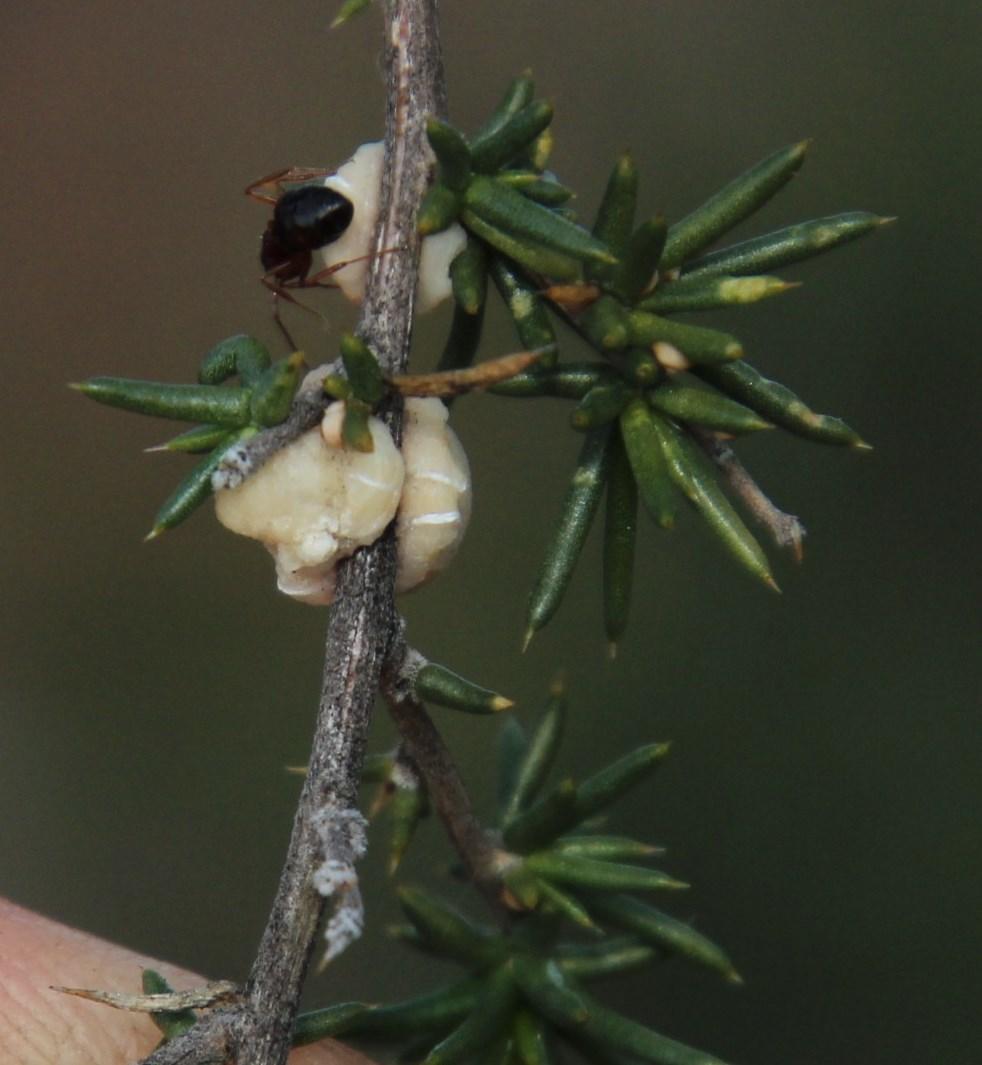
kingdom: Animalia
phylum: Arthropoda
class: Insecta
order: Hymenoptera
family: Formicidae
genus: Crematogaster
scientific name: Crematogaster melanogaster
